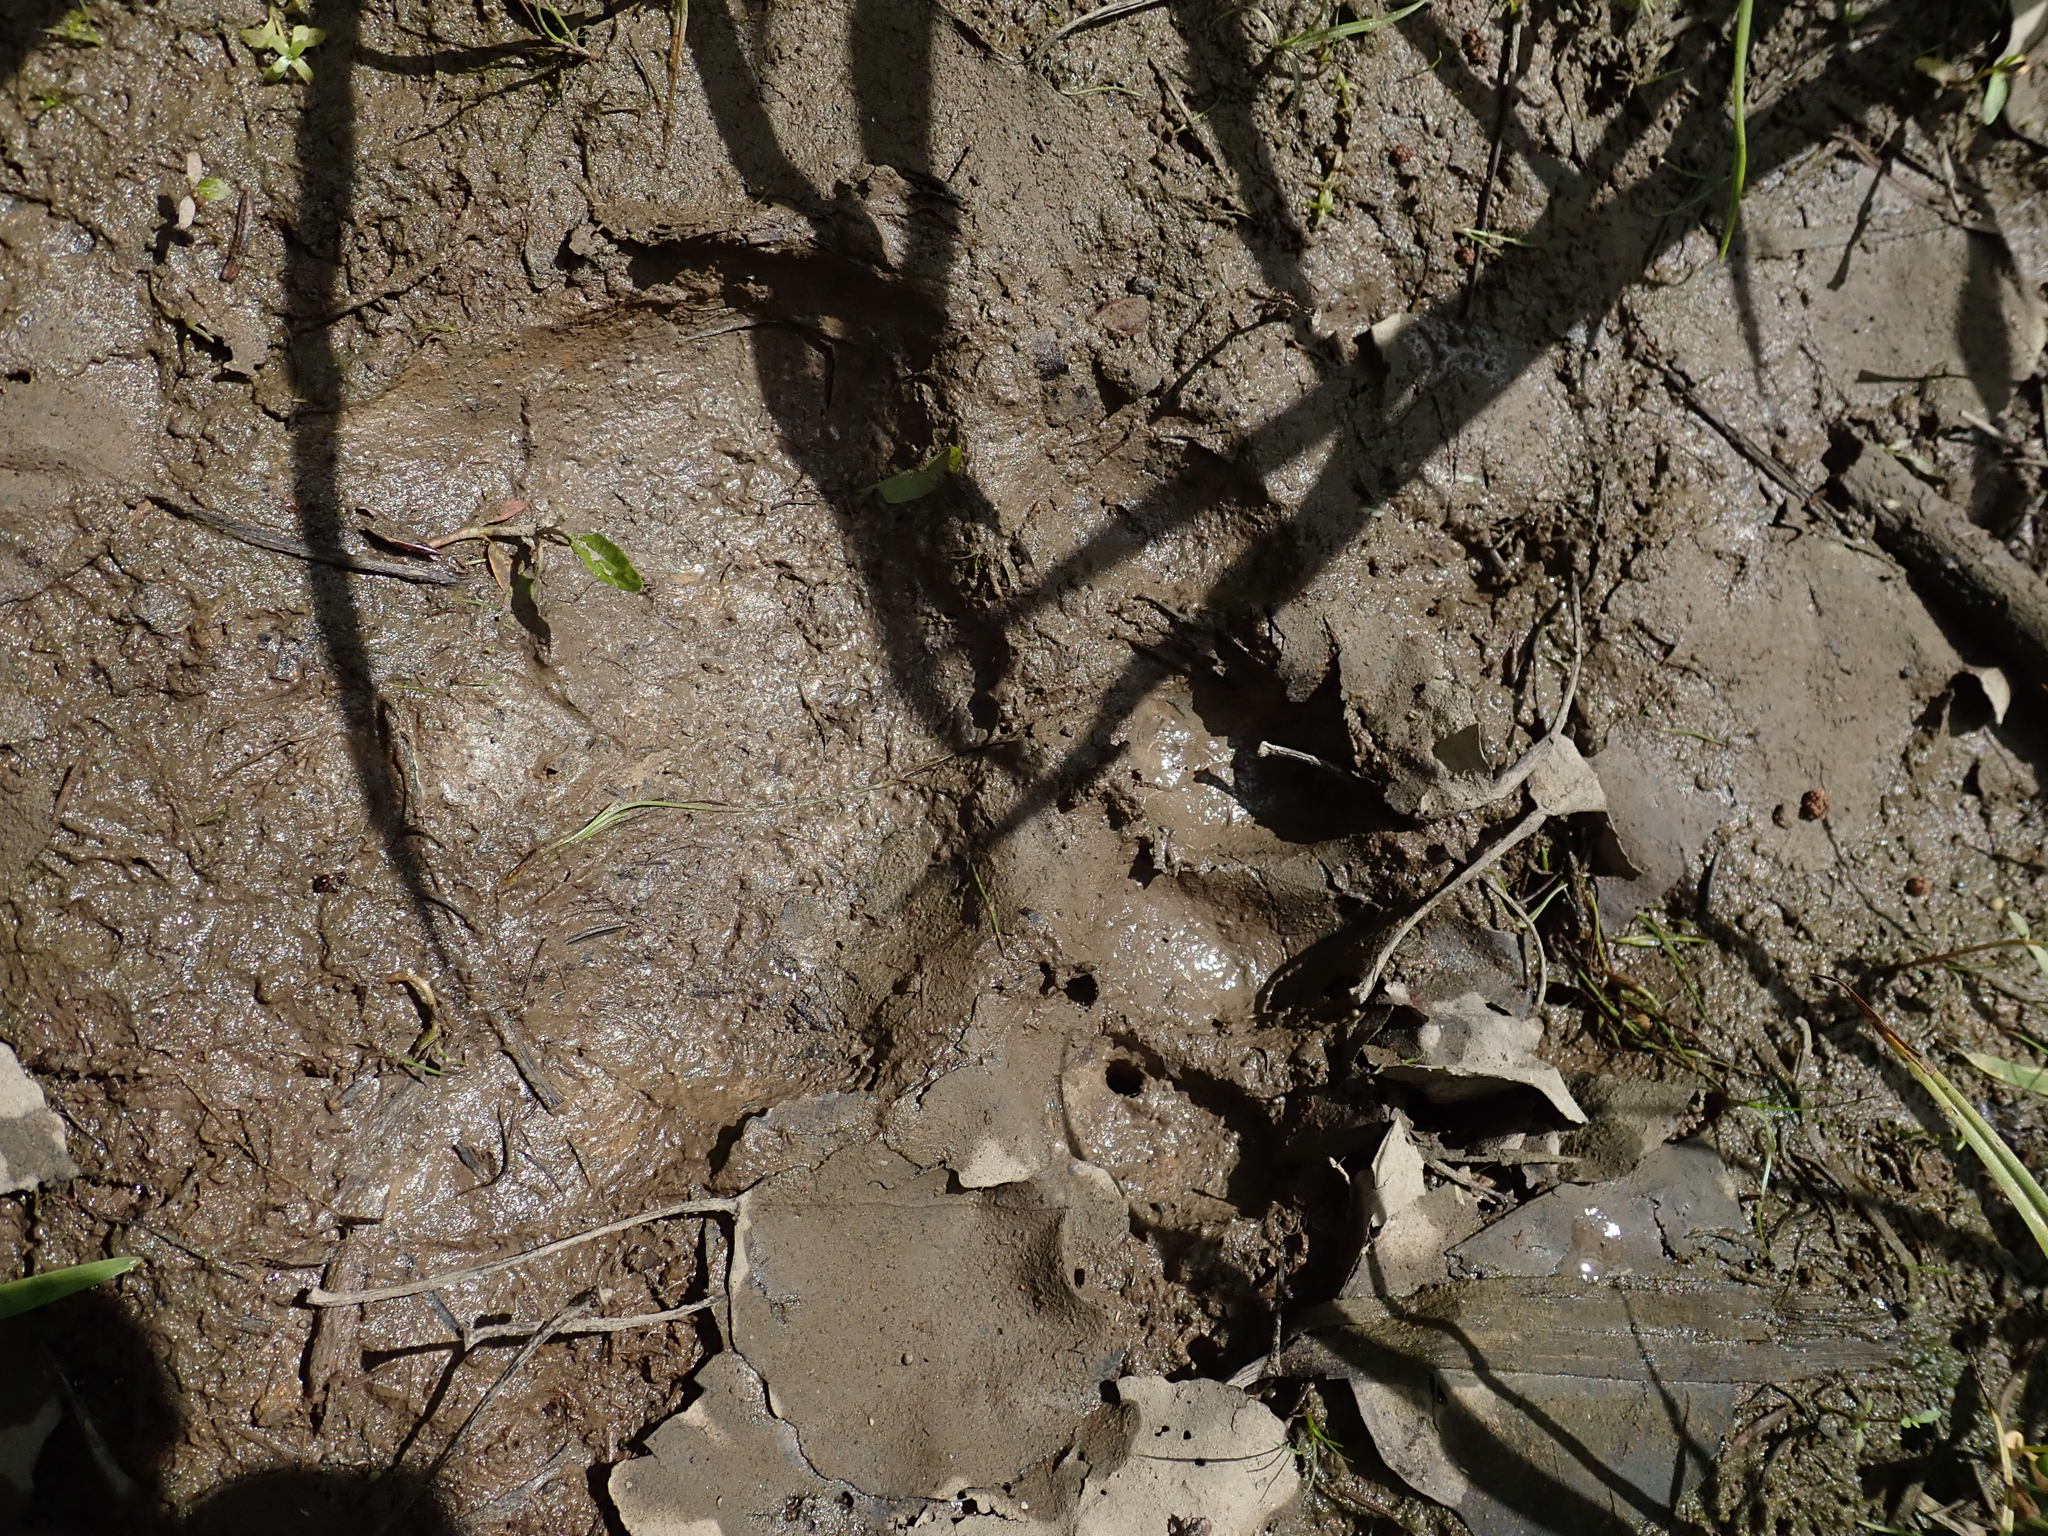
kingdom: Animalia
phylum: Chordata
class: Mammalia
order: Carnivora
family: Ursidae
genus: Ursus
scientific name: Ursus americanus
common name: American black bear
